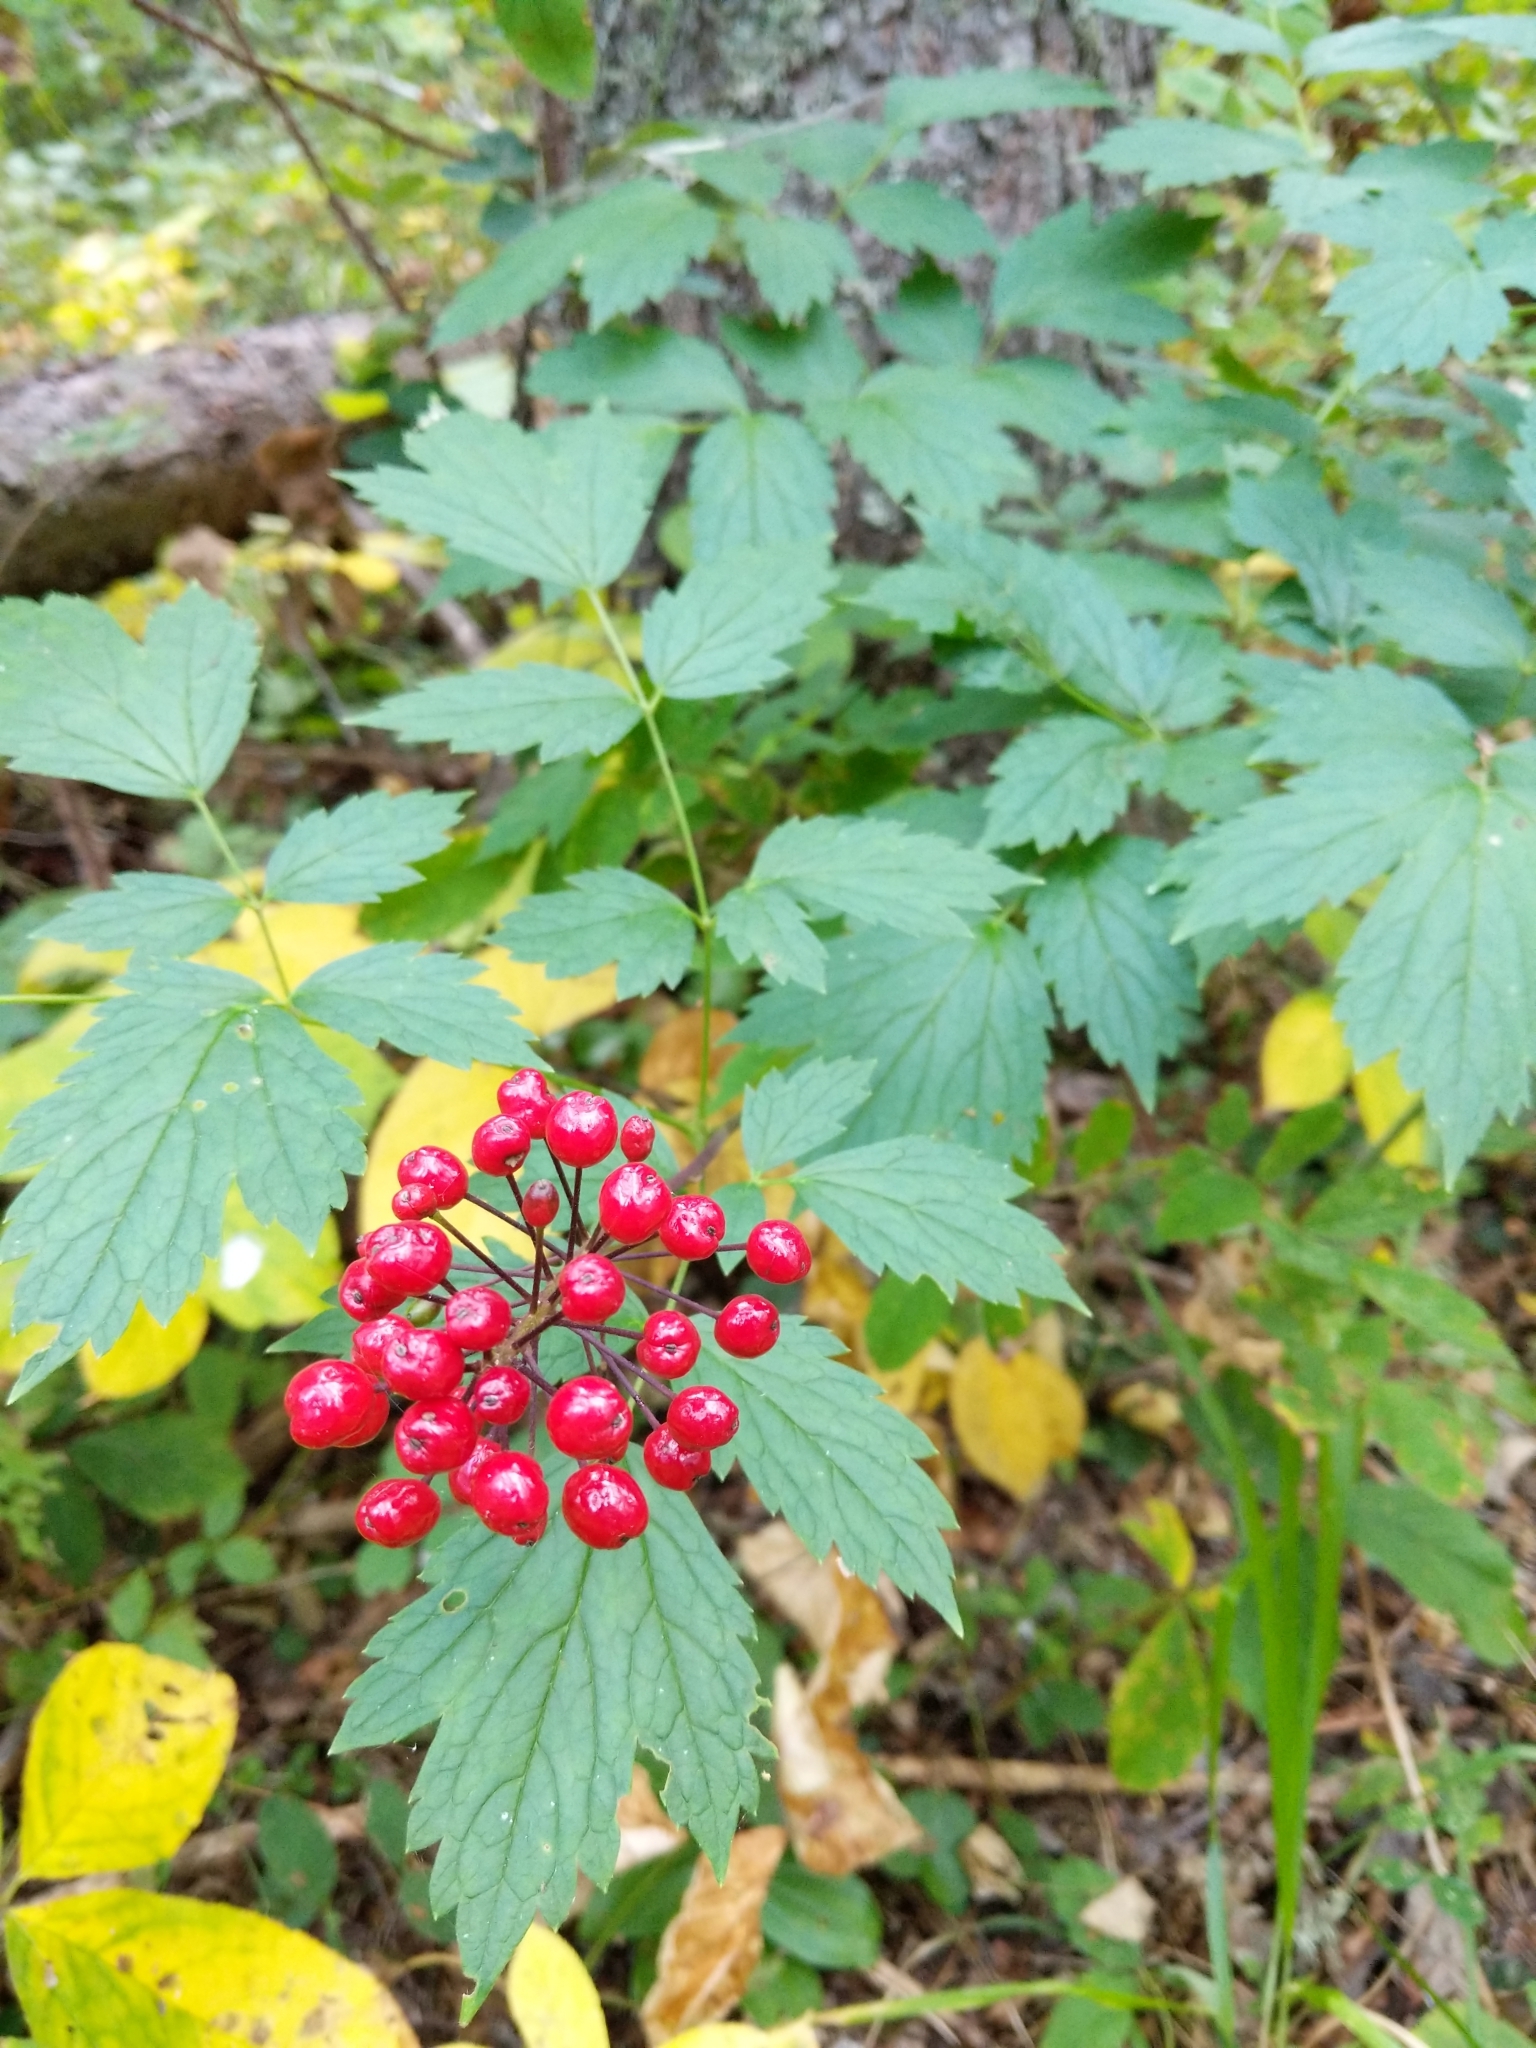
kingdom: Plantae
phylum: Tracheophyta
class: Magnoliopsida
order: Ranunculales
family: Ranunculaceae
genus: Actaea
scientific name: Actaea rubra
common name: Red baneberry
